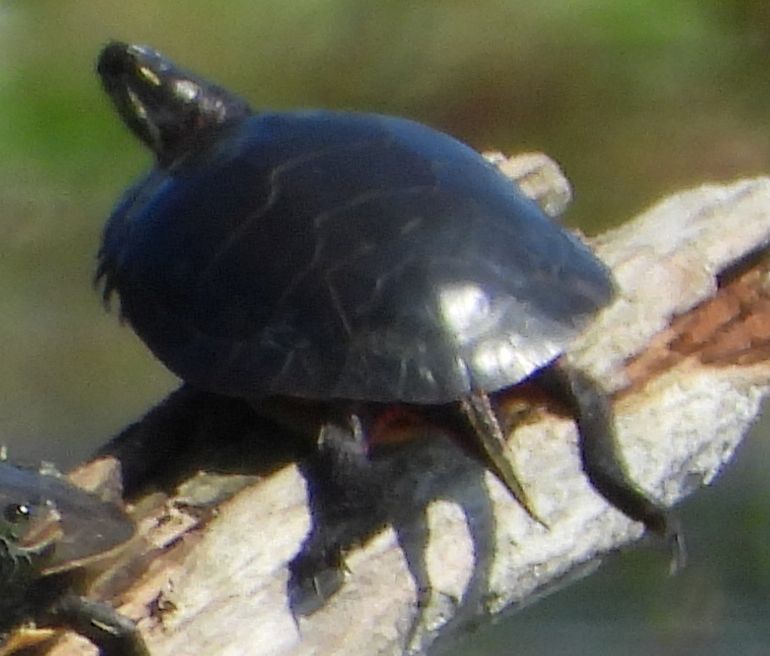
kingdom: Animalia
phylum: Chordata
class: Testudines
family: Emydidae
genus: Chrysemys
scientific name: Chrysemys picta
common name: Painted turtle
